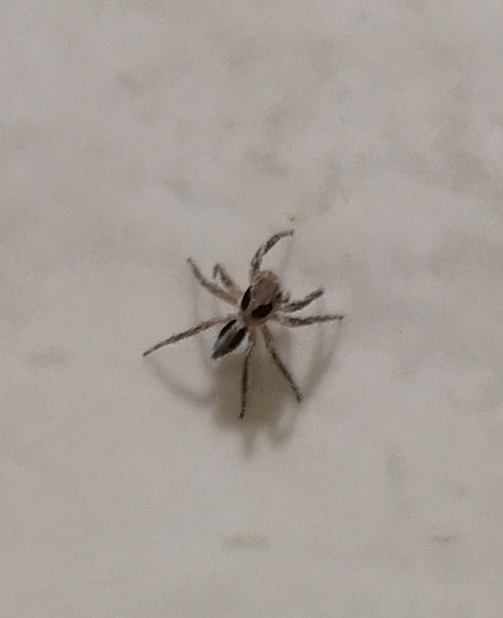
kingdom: Animalia
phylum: Arthropoda
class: Arachnida
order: Araneae
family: Salticidae
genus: Plexippus
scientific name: Plexippus petersi
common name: Jumping spider
